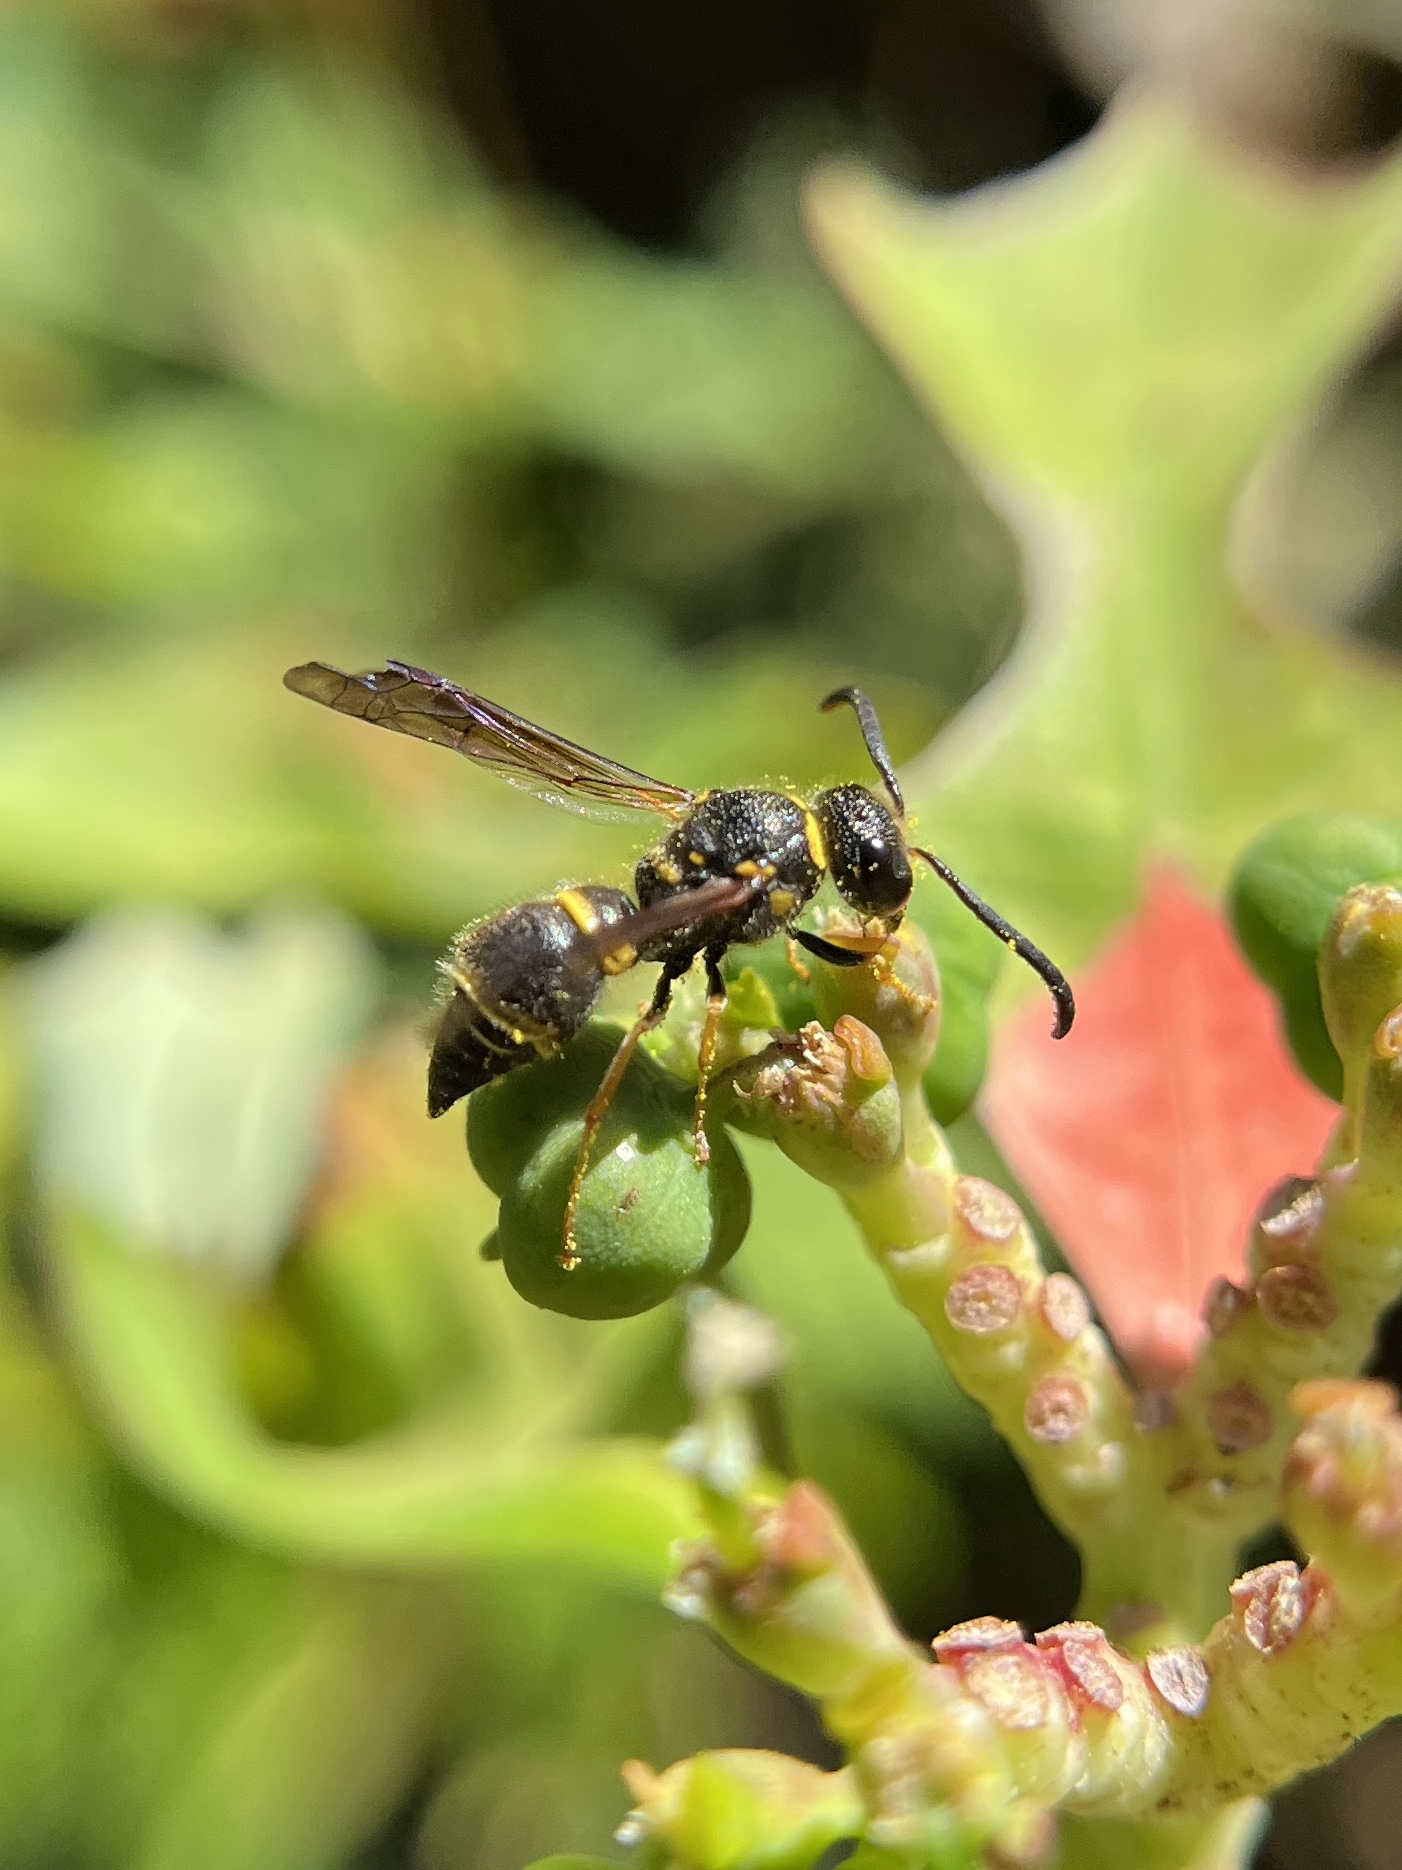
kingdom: Animalia
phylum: Arthropoda
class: Insecta
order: Hymenoptera
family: Vespidae
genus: Ancistrocerus
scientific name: Ancistrocerus campestris
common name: Smiling mason wasp
